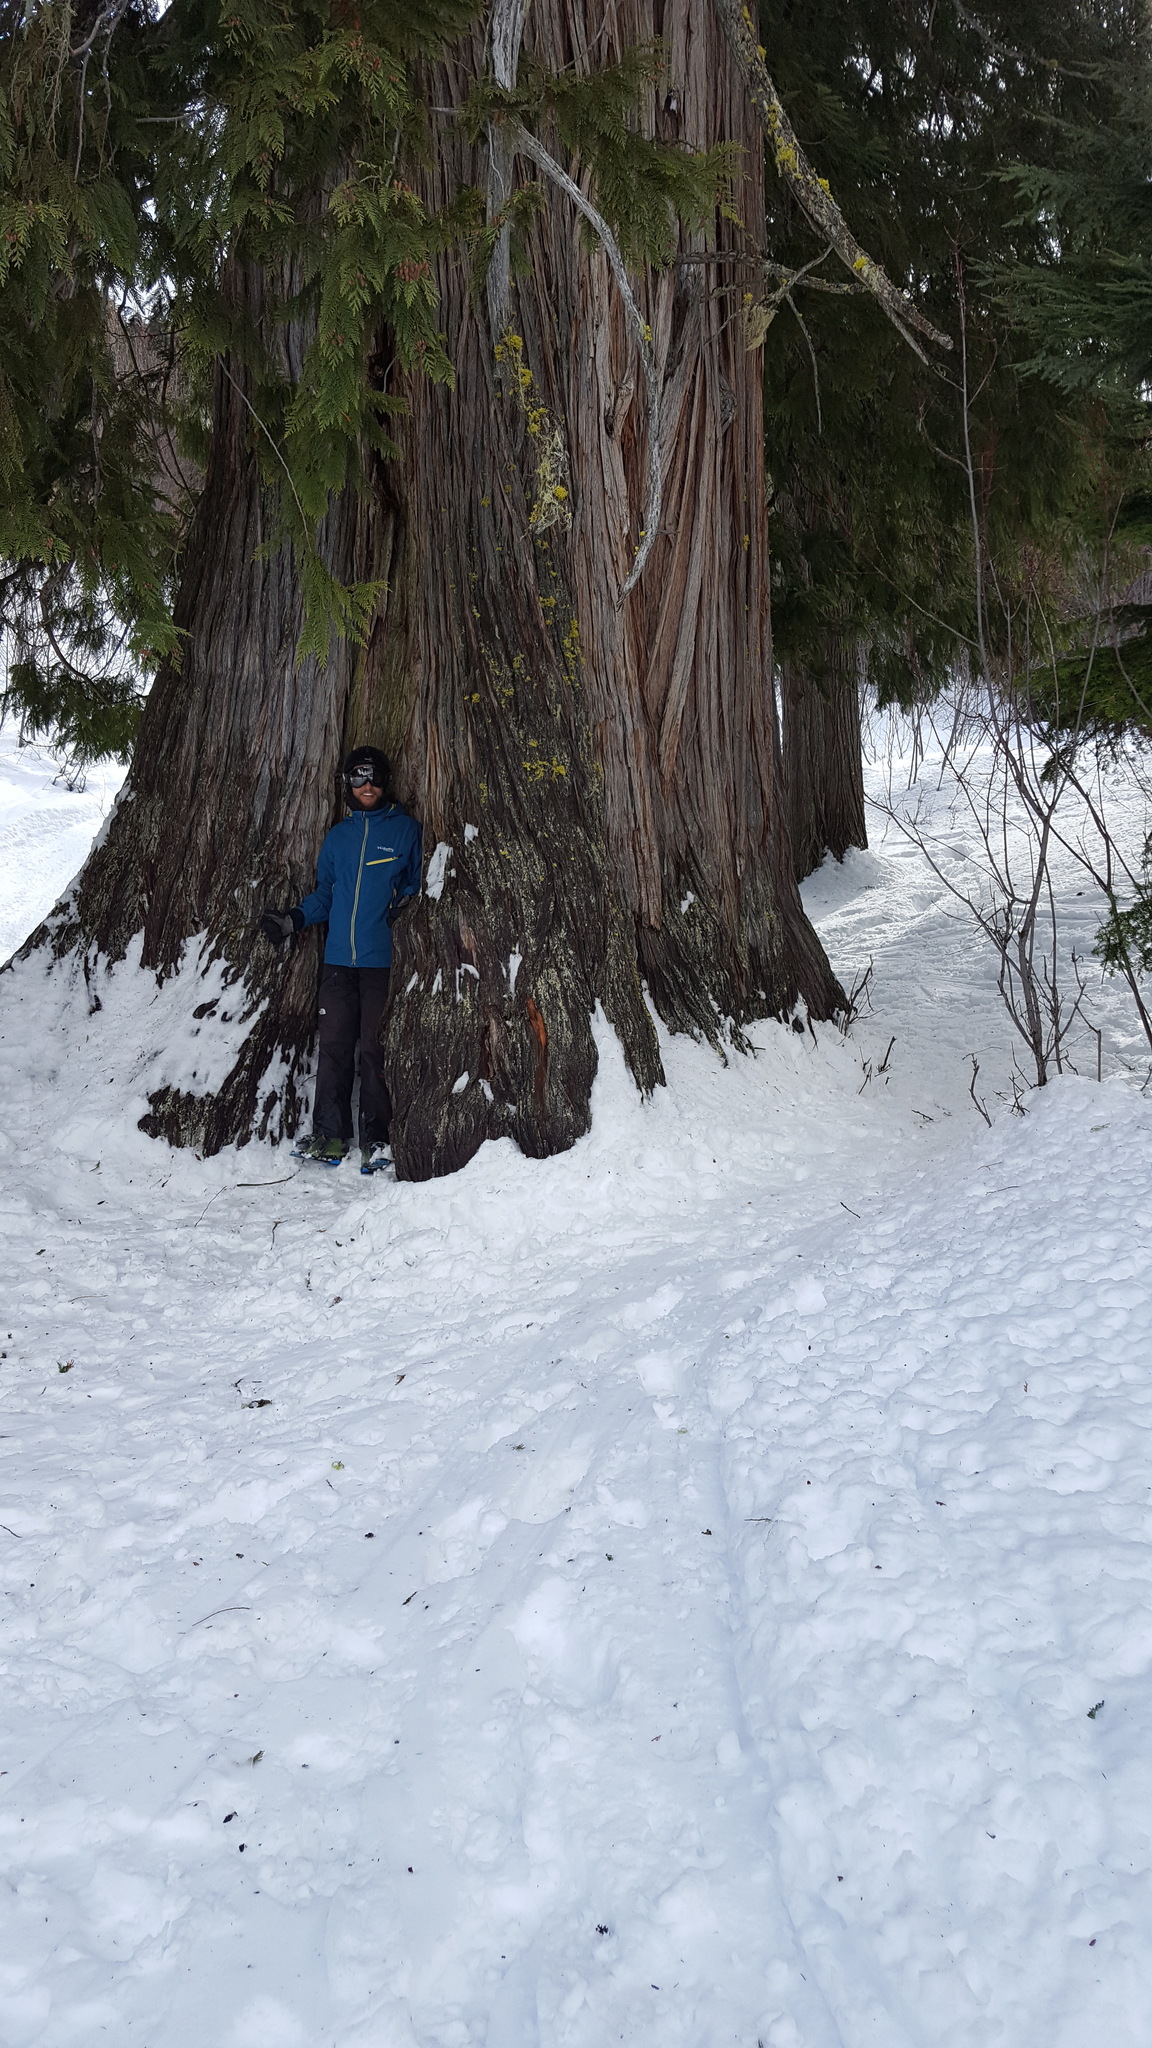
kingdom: Plantae
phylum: Tracheophyta
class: Pinopsida
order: Pinales
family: Cupressaceae
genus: Thuja
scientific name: Thuja plicata
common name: Western red-cedar
